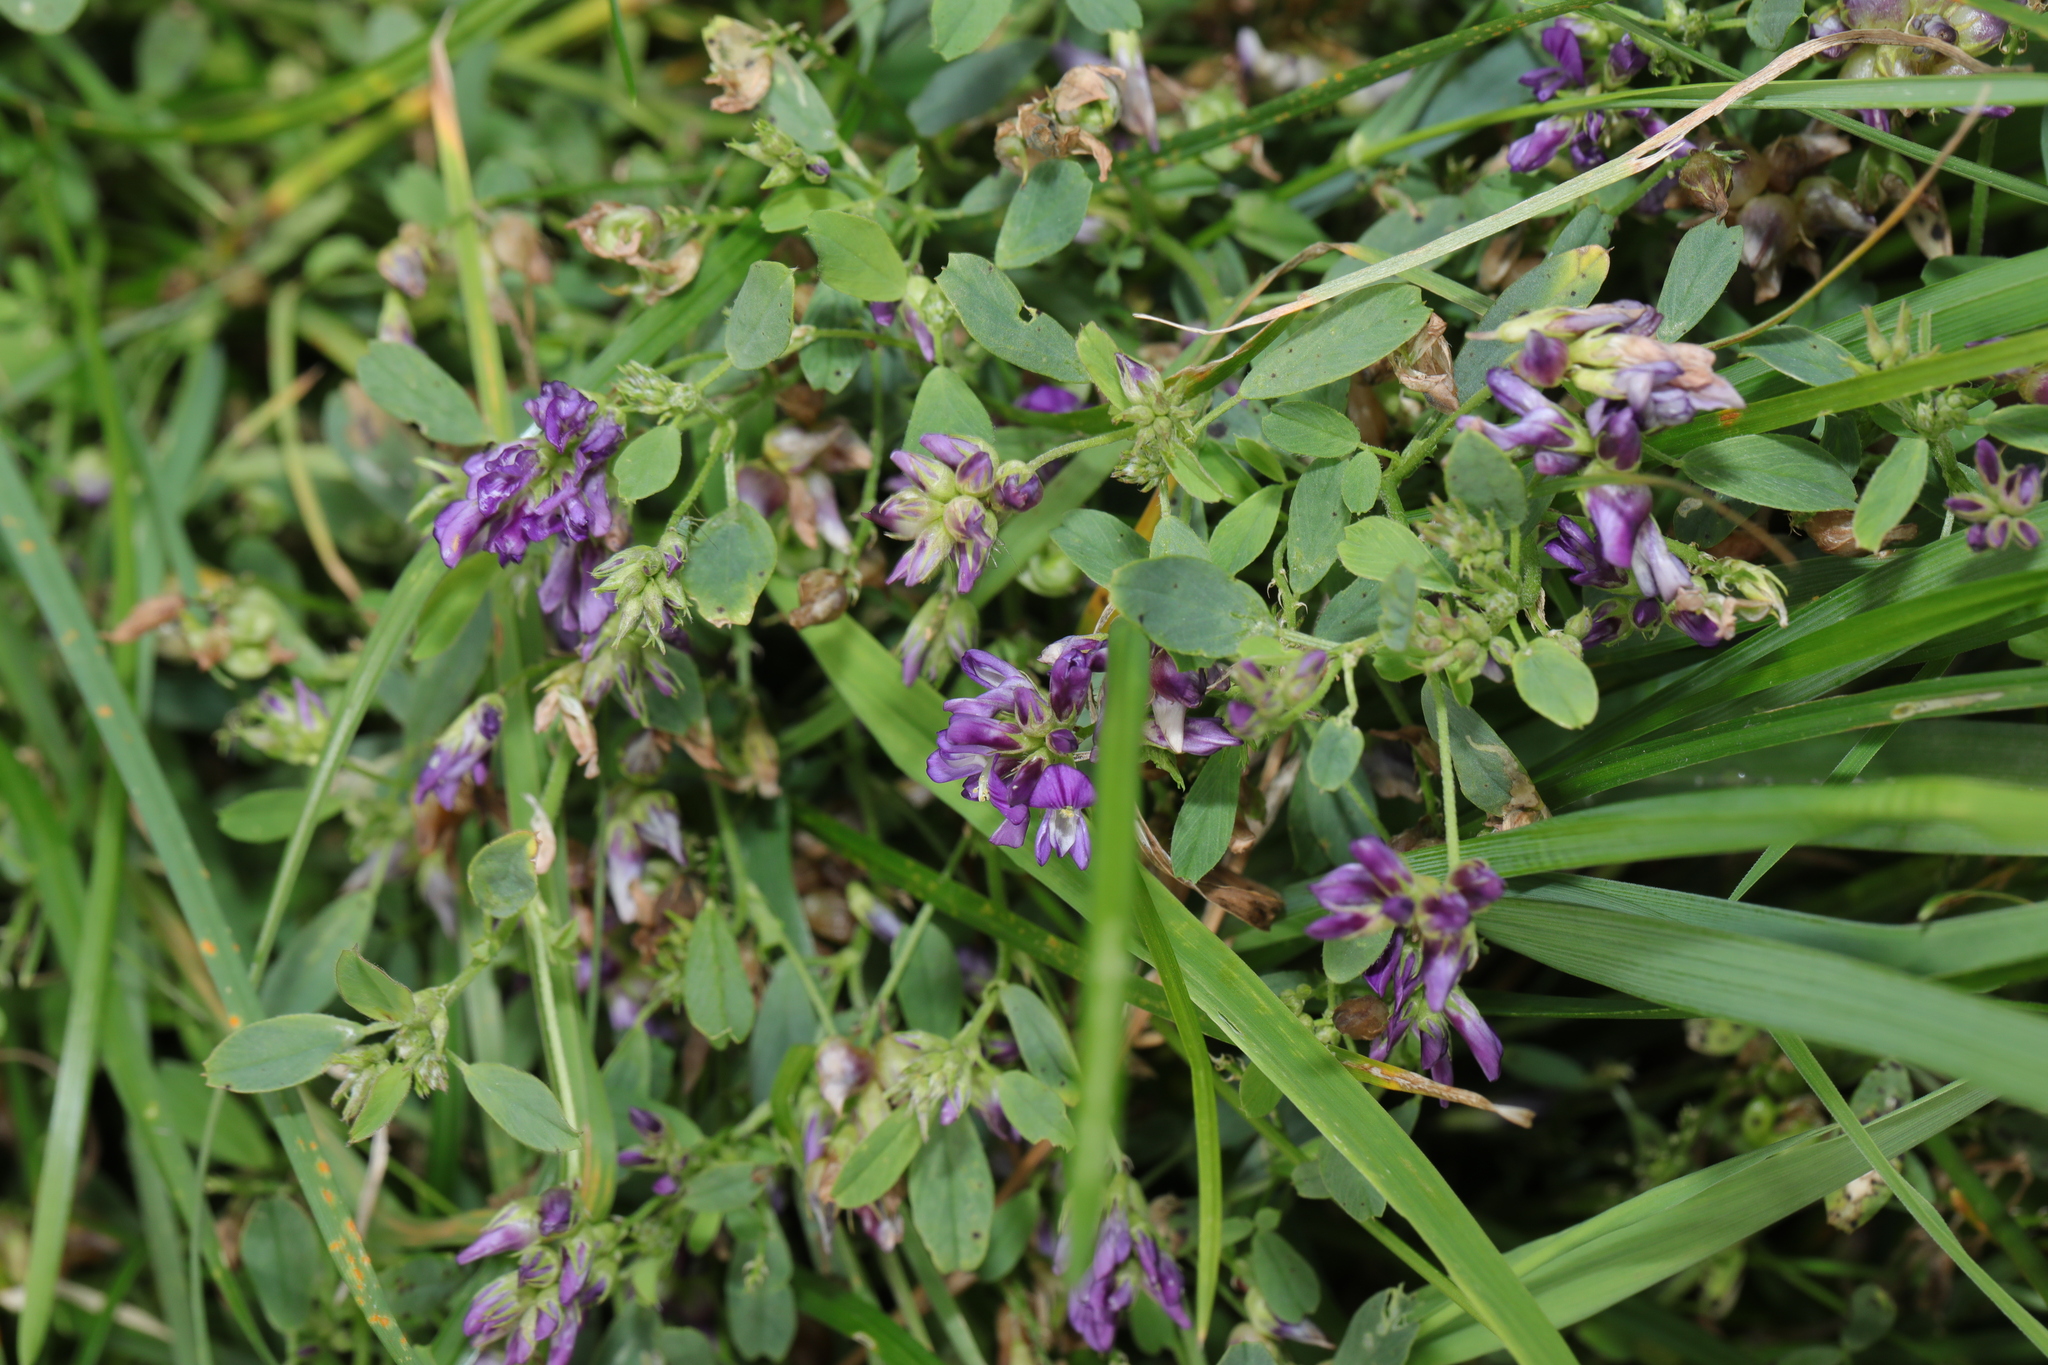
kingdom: Plantae
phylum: Tracheophyta
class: Magnoliopsida
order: Fabales
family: Fabaceae
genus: Medicago
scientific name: Medicago sativa
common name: Alfalfa
